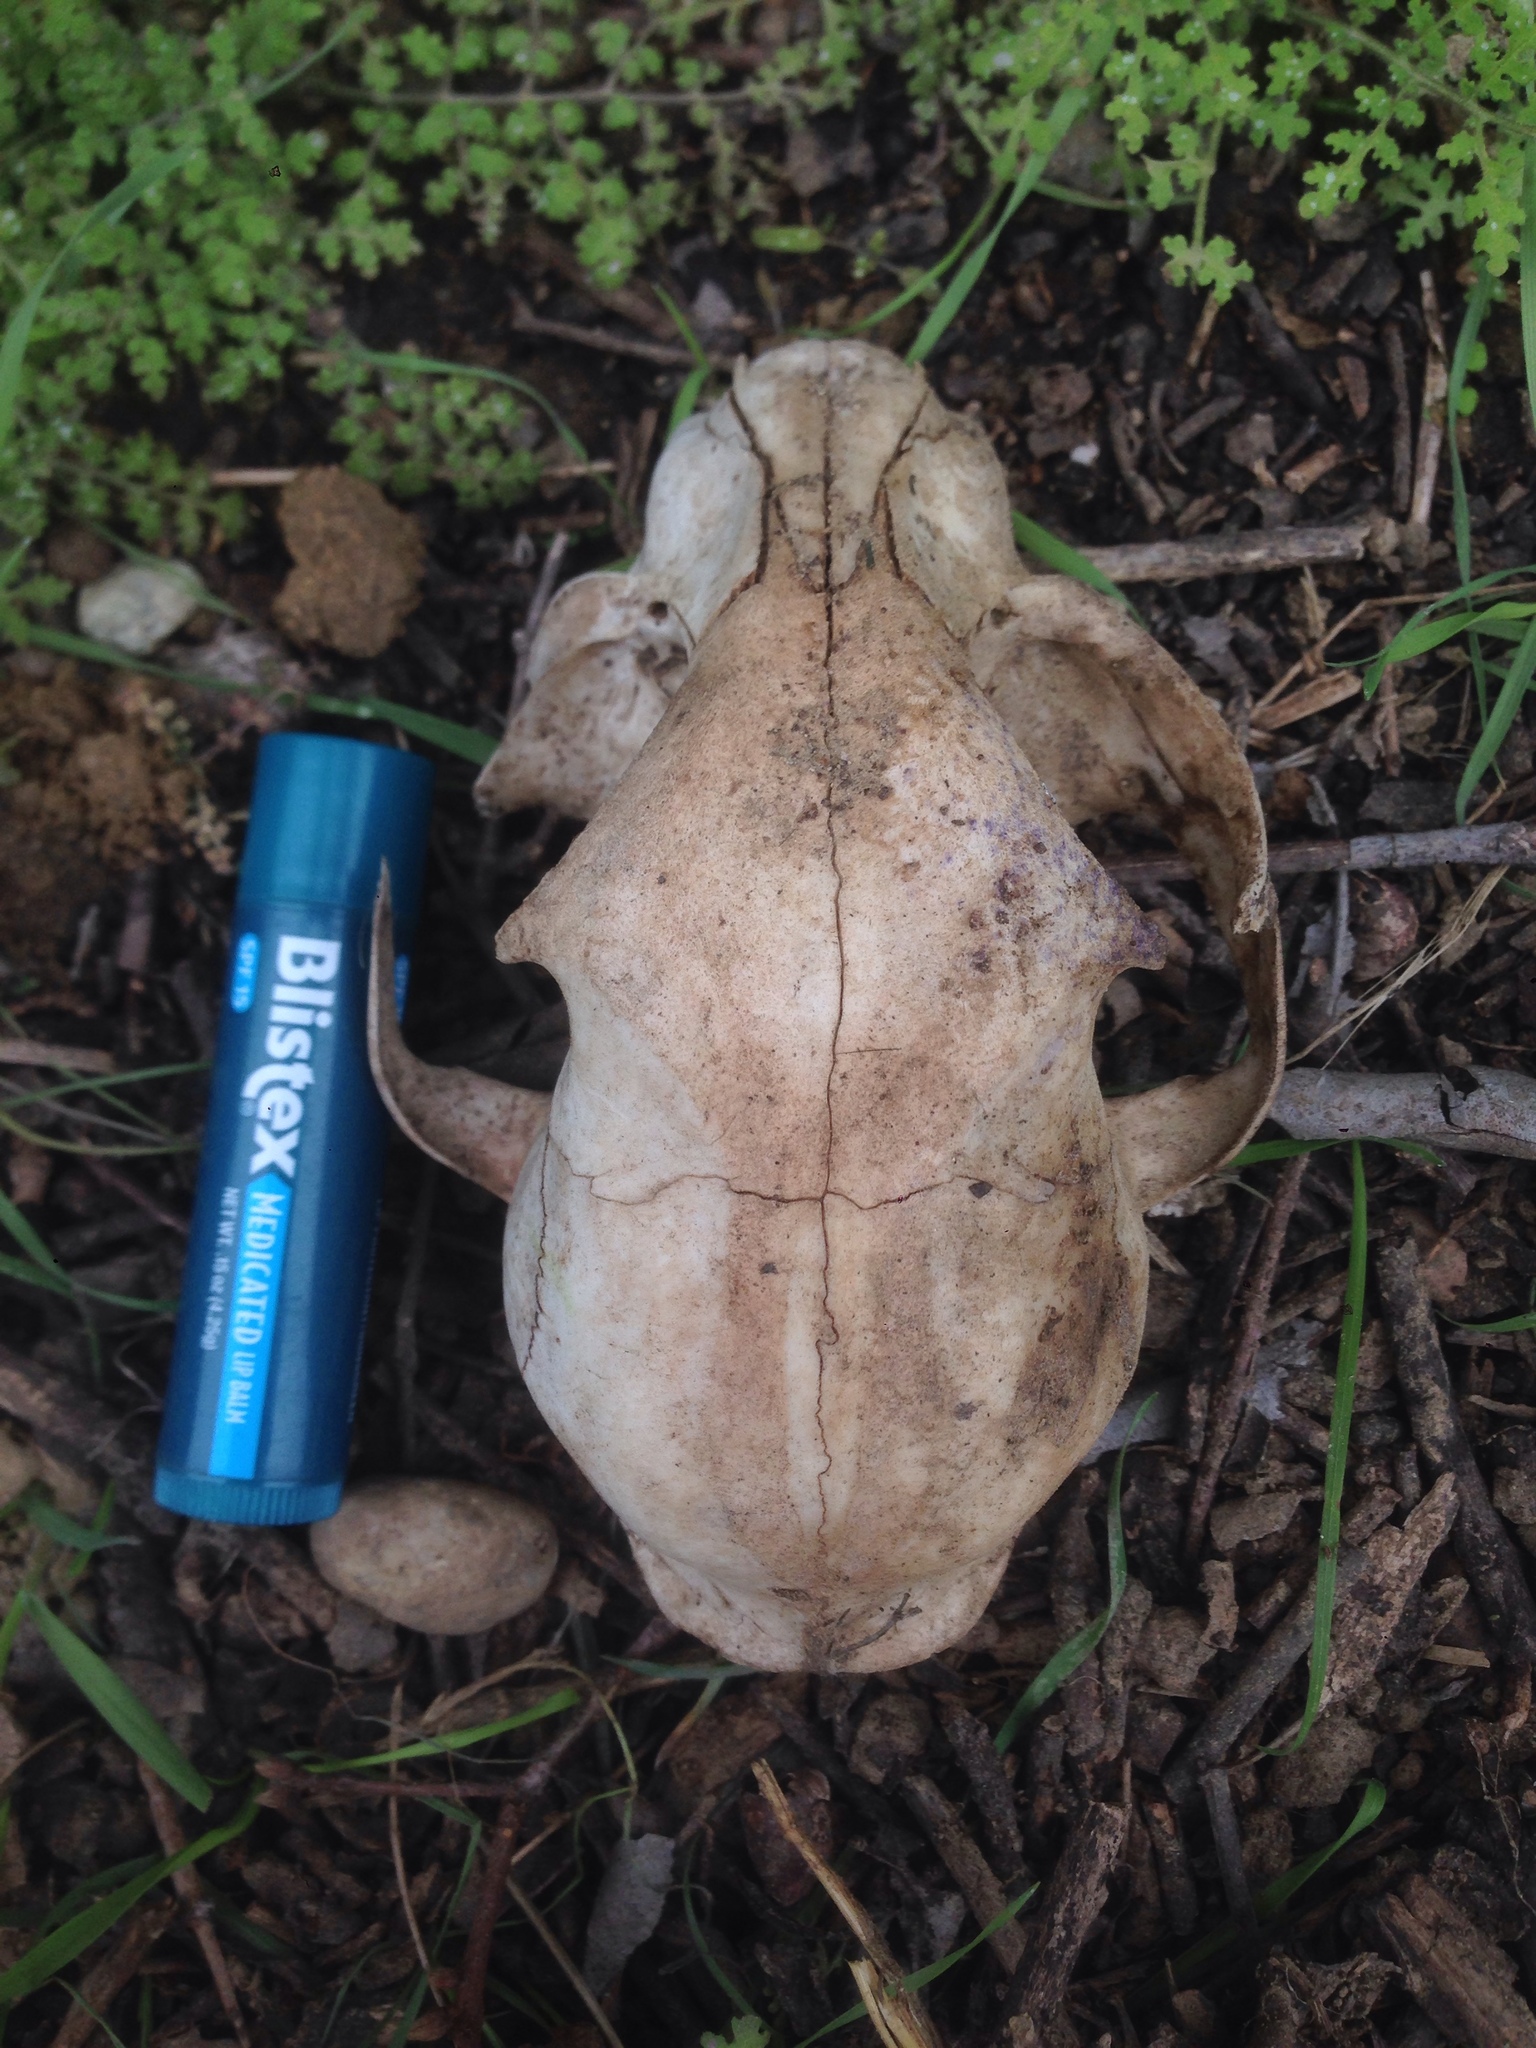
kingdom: Animalia
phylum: Chordata
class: Mammalia
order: Carnivora
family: Felidae
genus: Lynx
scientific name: Lynx rufus
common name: Bobcat
